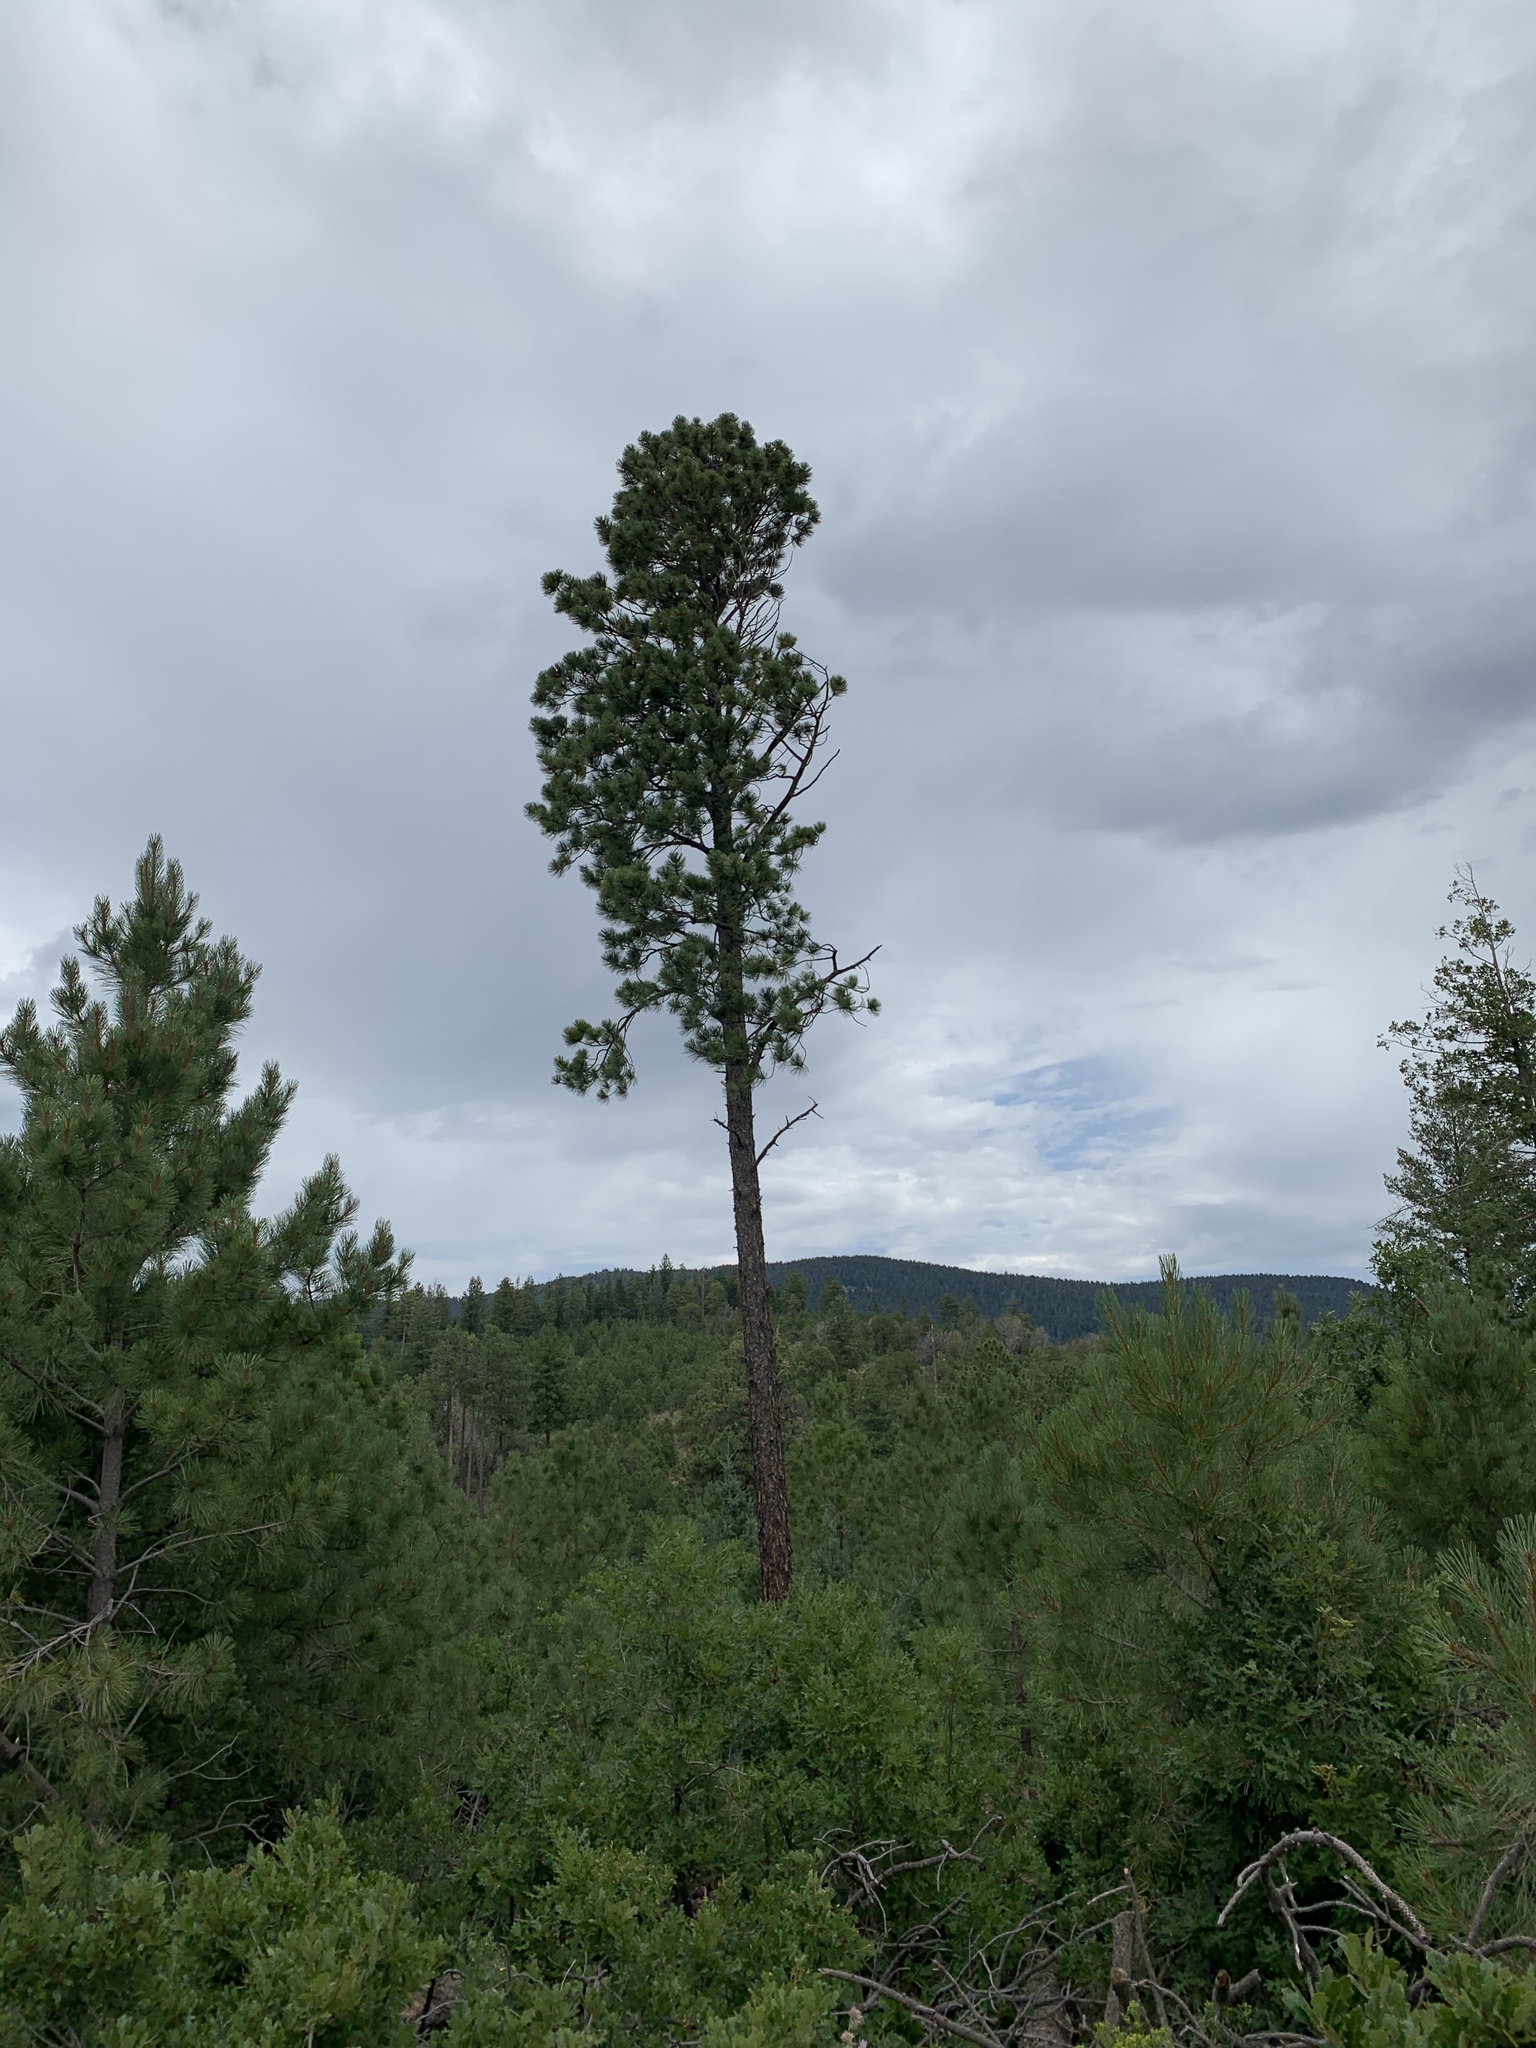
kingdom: Plantae
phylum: Tracheophyta
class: Pinopsida
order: Pinales
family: Pinaceae
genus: Pinus
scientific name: Pinus ponderosa
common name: Western yellow-pine
